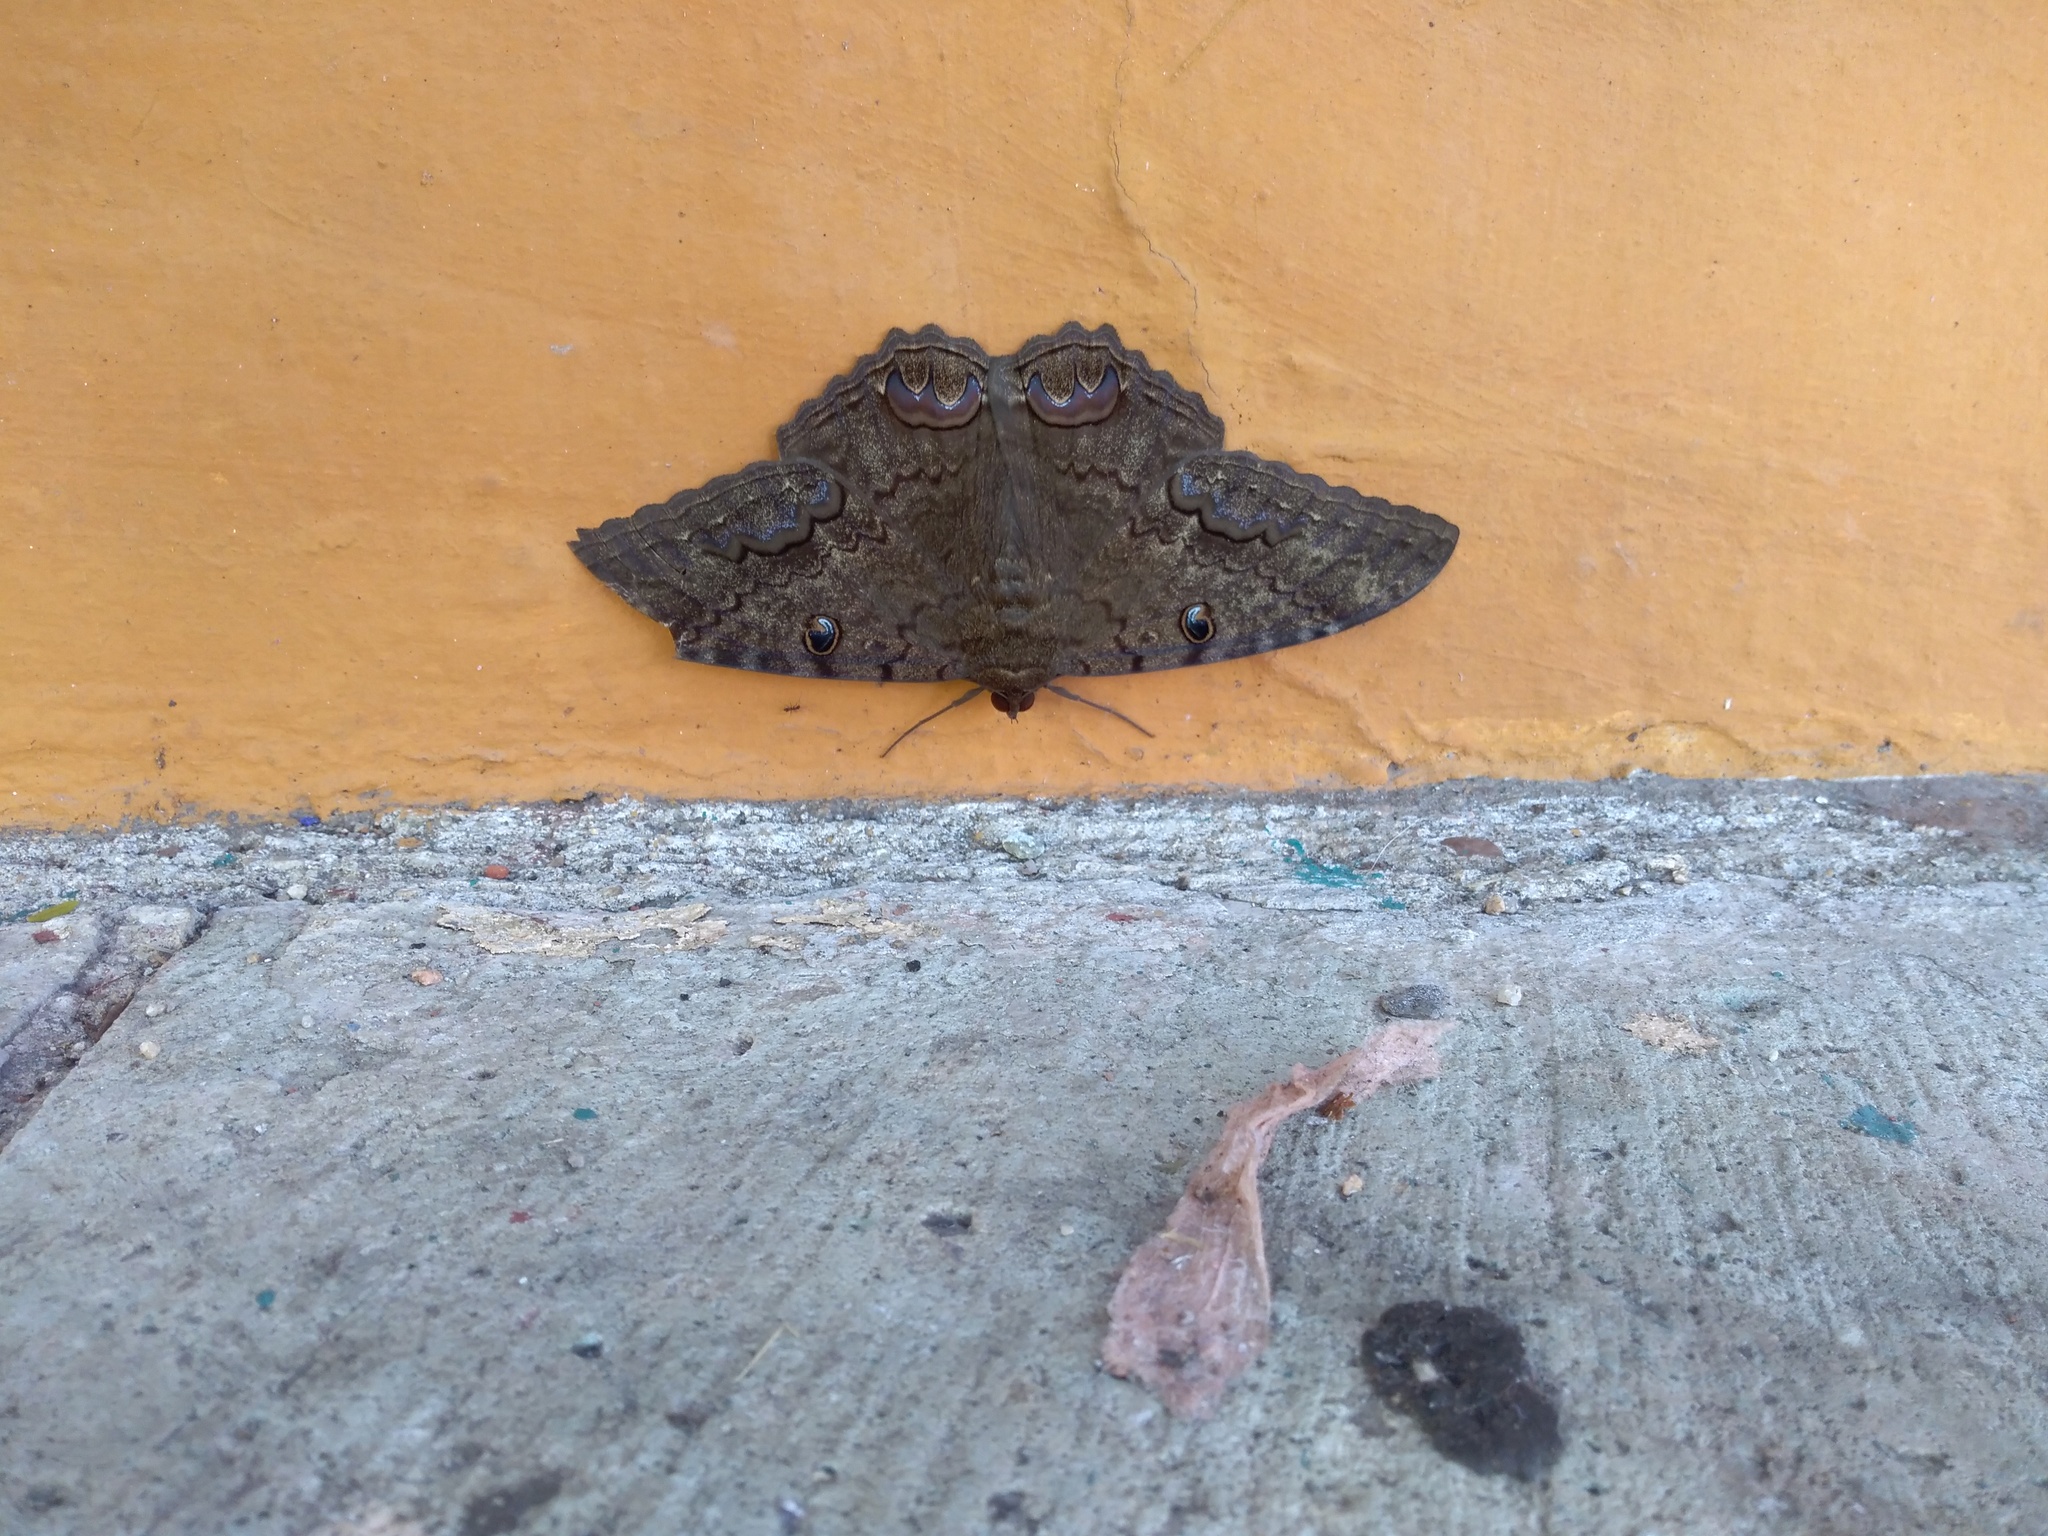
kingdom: Animalia
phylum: Arthropoda
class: Insecta
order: Lepidoptera
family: Erebidae
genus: Ascalapha
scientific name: Ascalapha odorata
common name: Black witch
